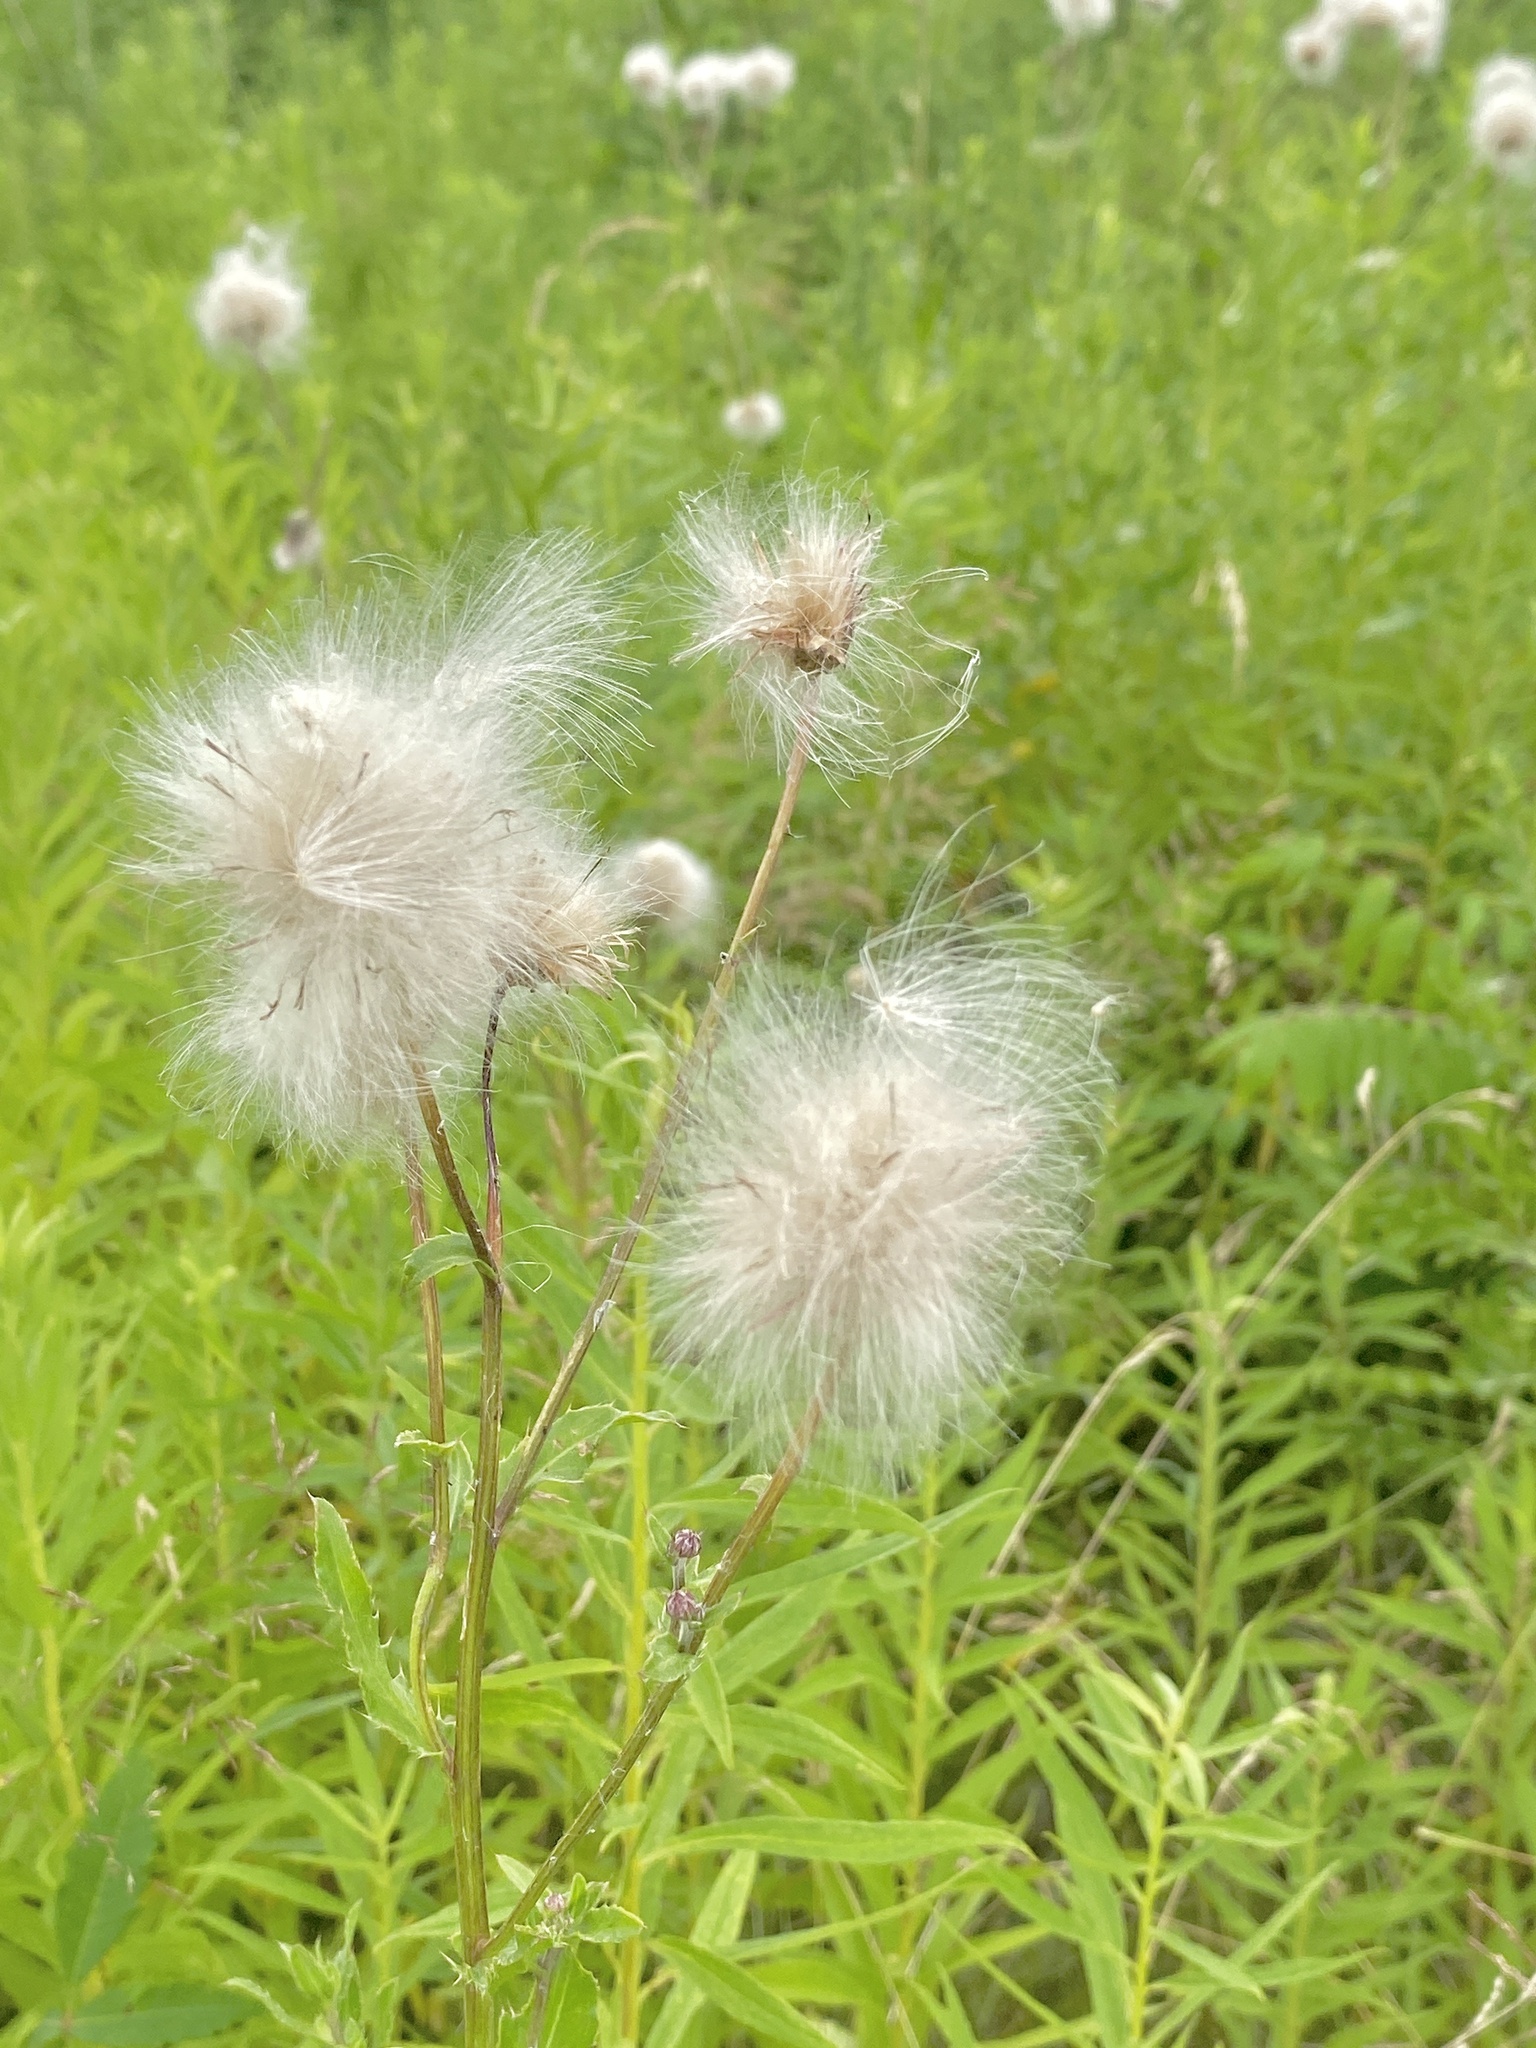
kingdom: Plantae
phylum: Tracheophyta
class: Magnoliopsida
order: Asterales
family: Asteraceae
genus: Cirsium
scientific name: Cirsium arvense
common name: Creeping thistle
